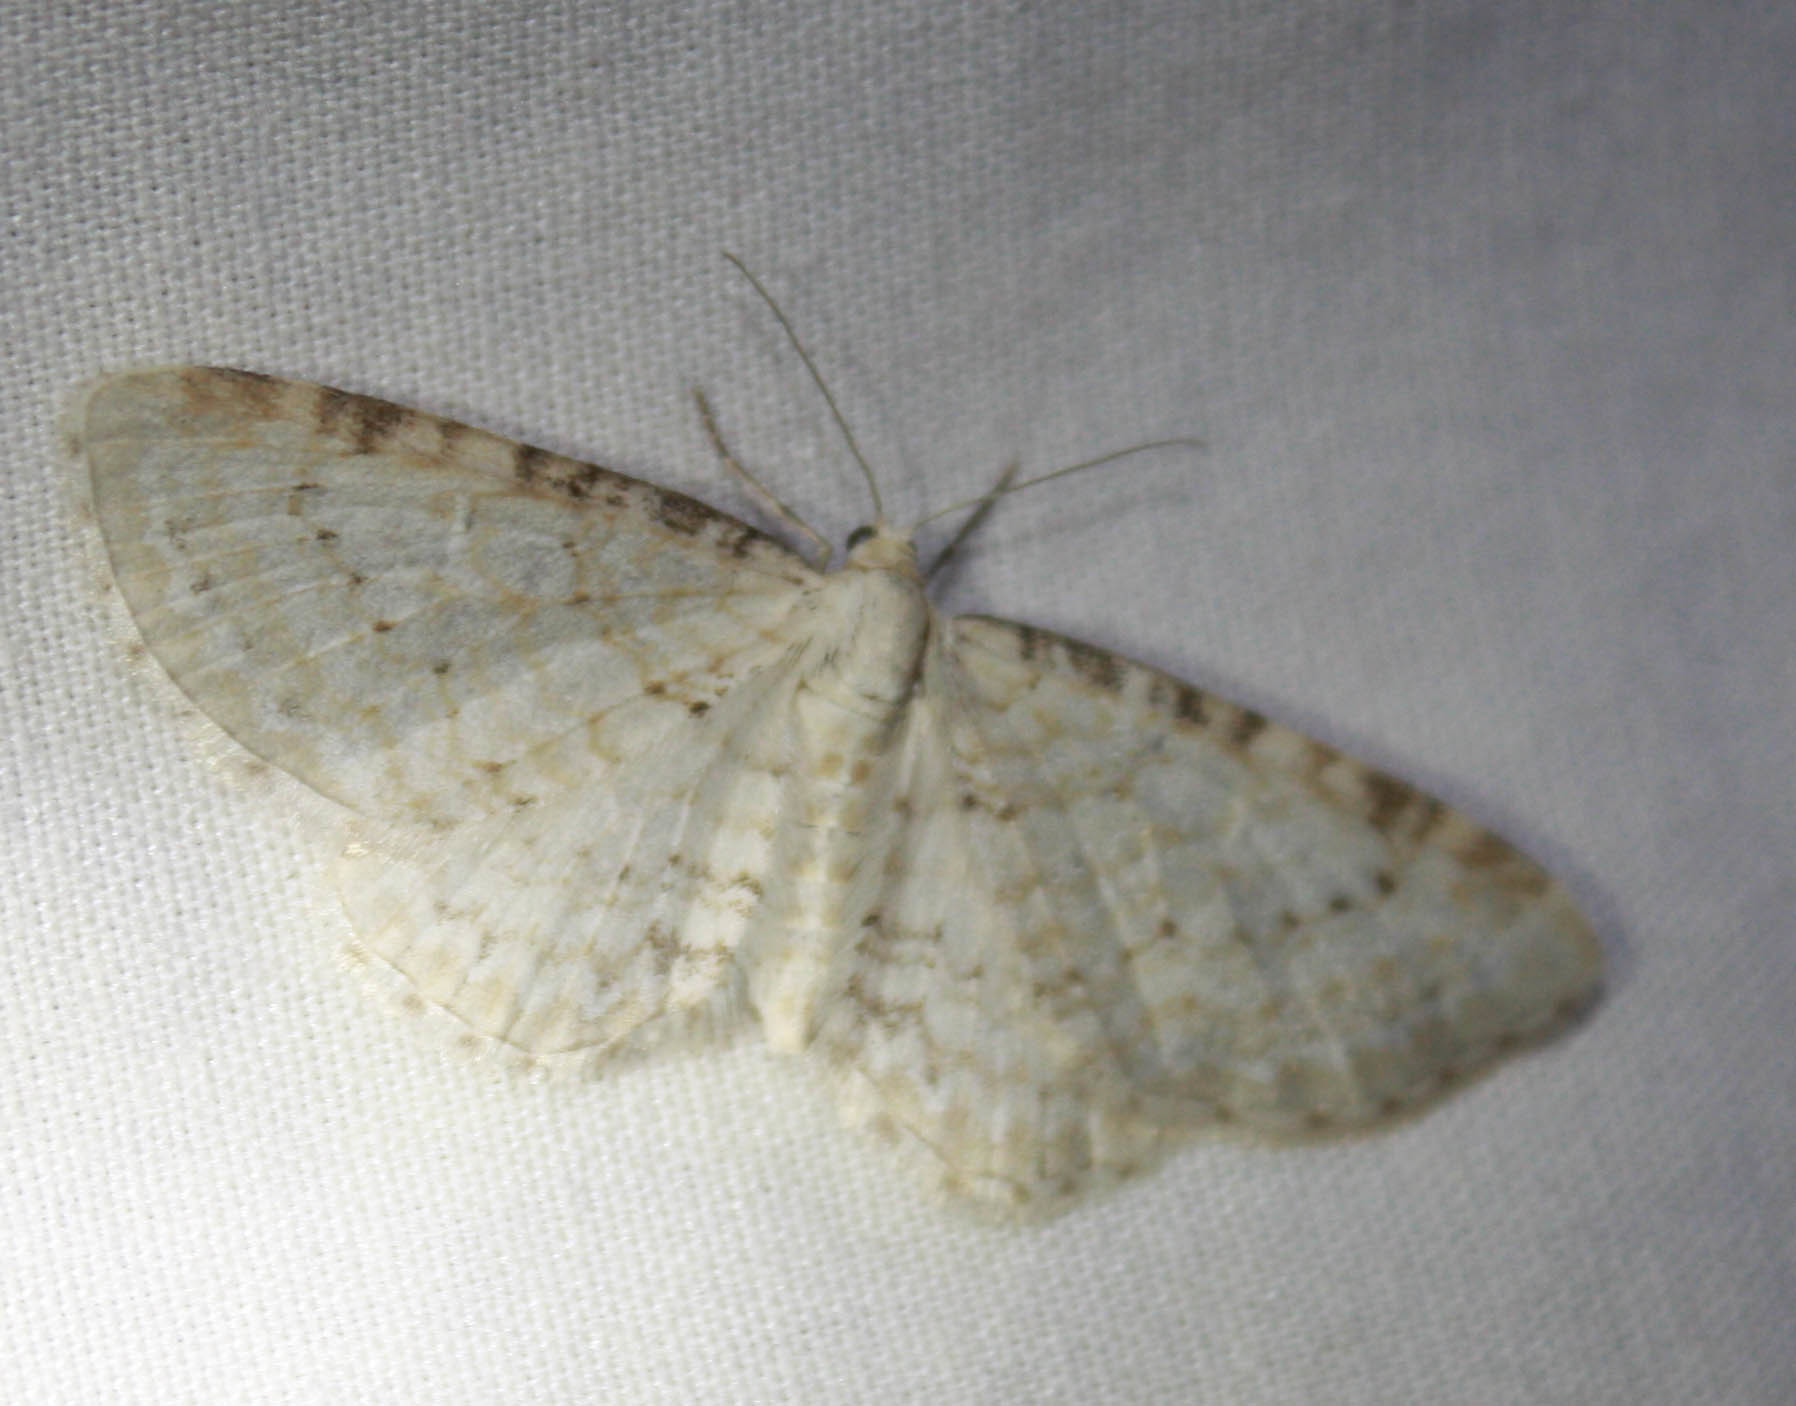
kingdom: Animalia
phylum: Arthropoda
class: Insecta
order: Lepidoptera
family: Geometridae
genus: Eupithecia
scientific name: Eupithecia cretaceata
